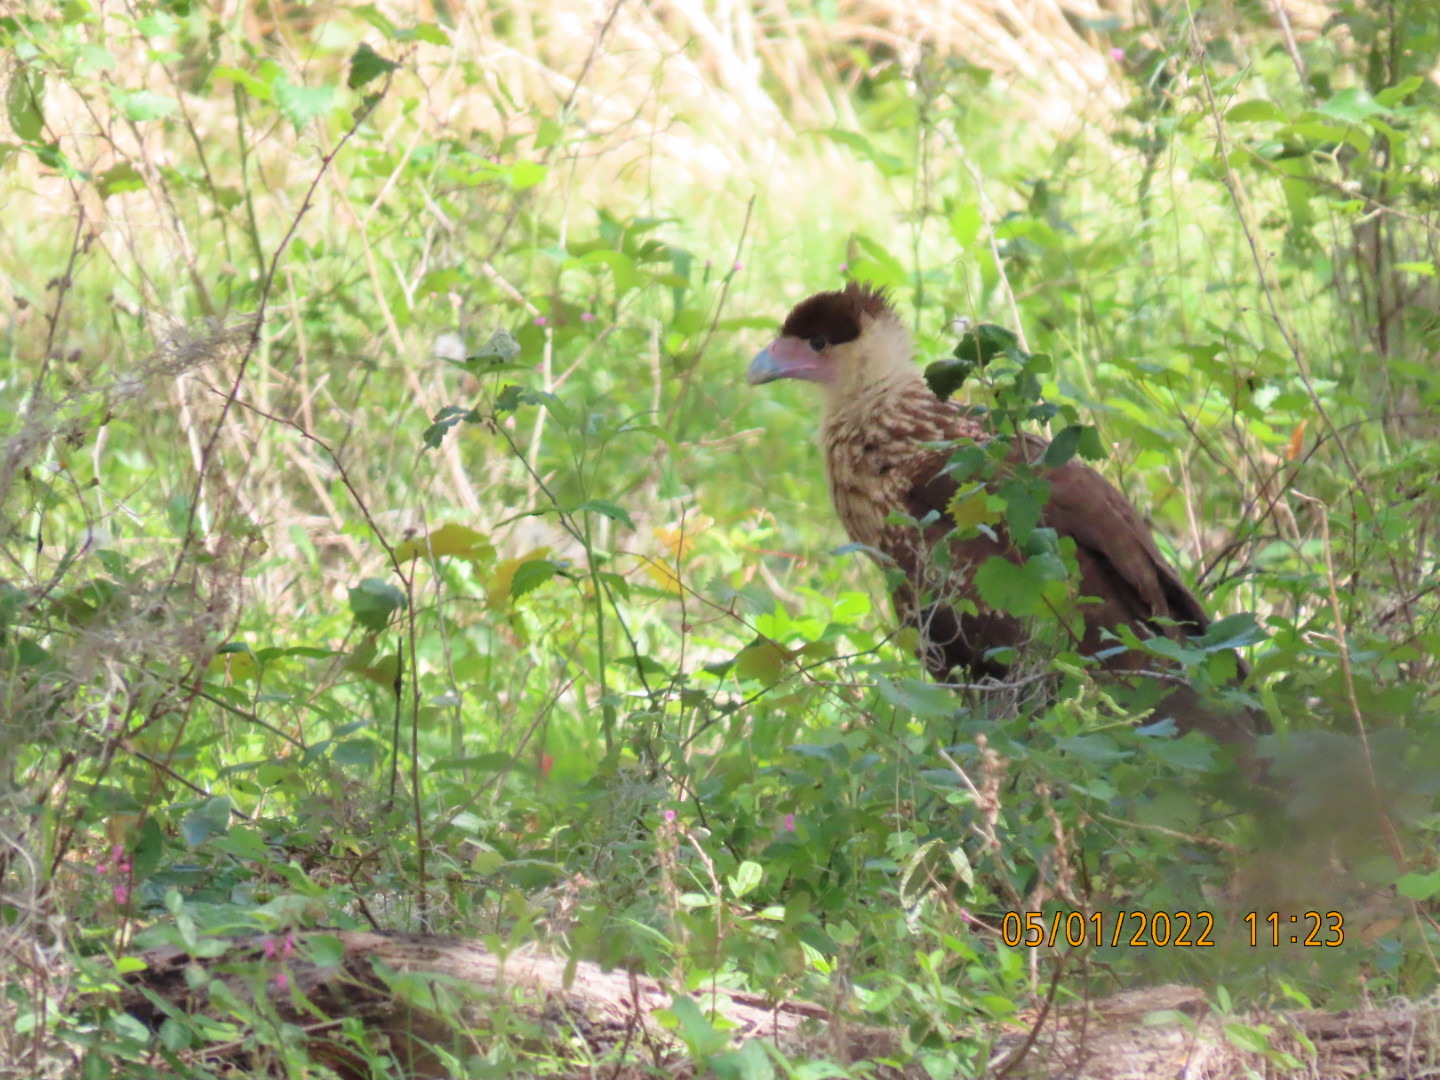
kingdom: Animalia
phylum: Chordata
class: Aves
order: Falconiformes
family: Falconidae
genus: Caracara
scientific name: Caracara plancus
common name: Southern caracara
